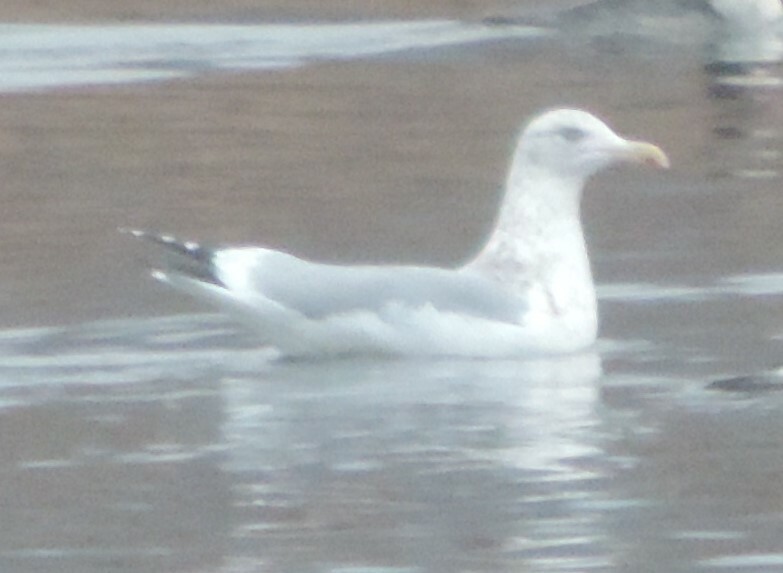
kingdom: Animalia
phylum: Chordata
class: Aves
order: Charadriiformes
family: Laridae
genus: Larus
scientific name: Larus argentatus
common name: Herring gull
